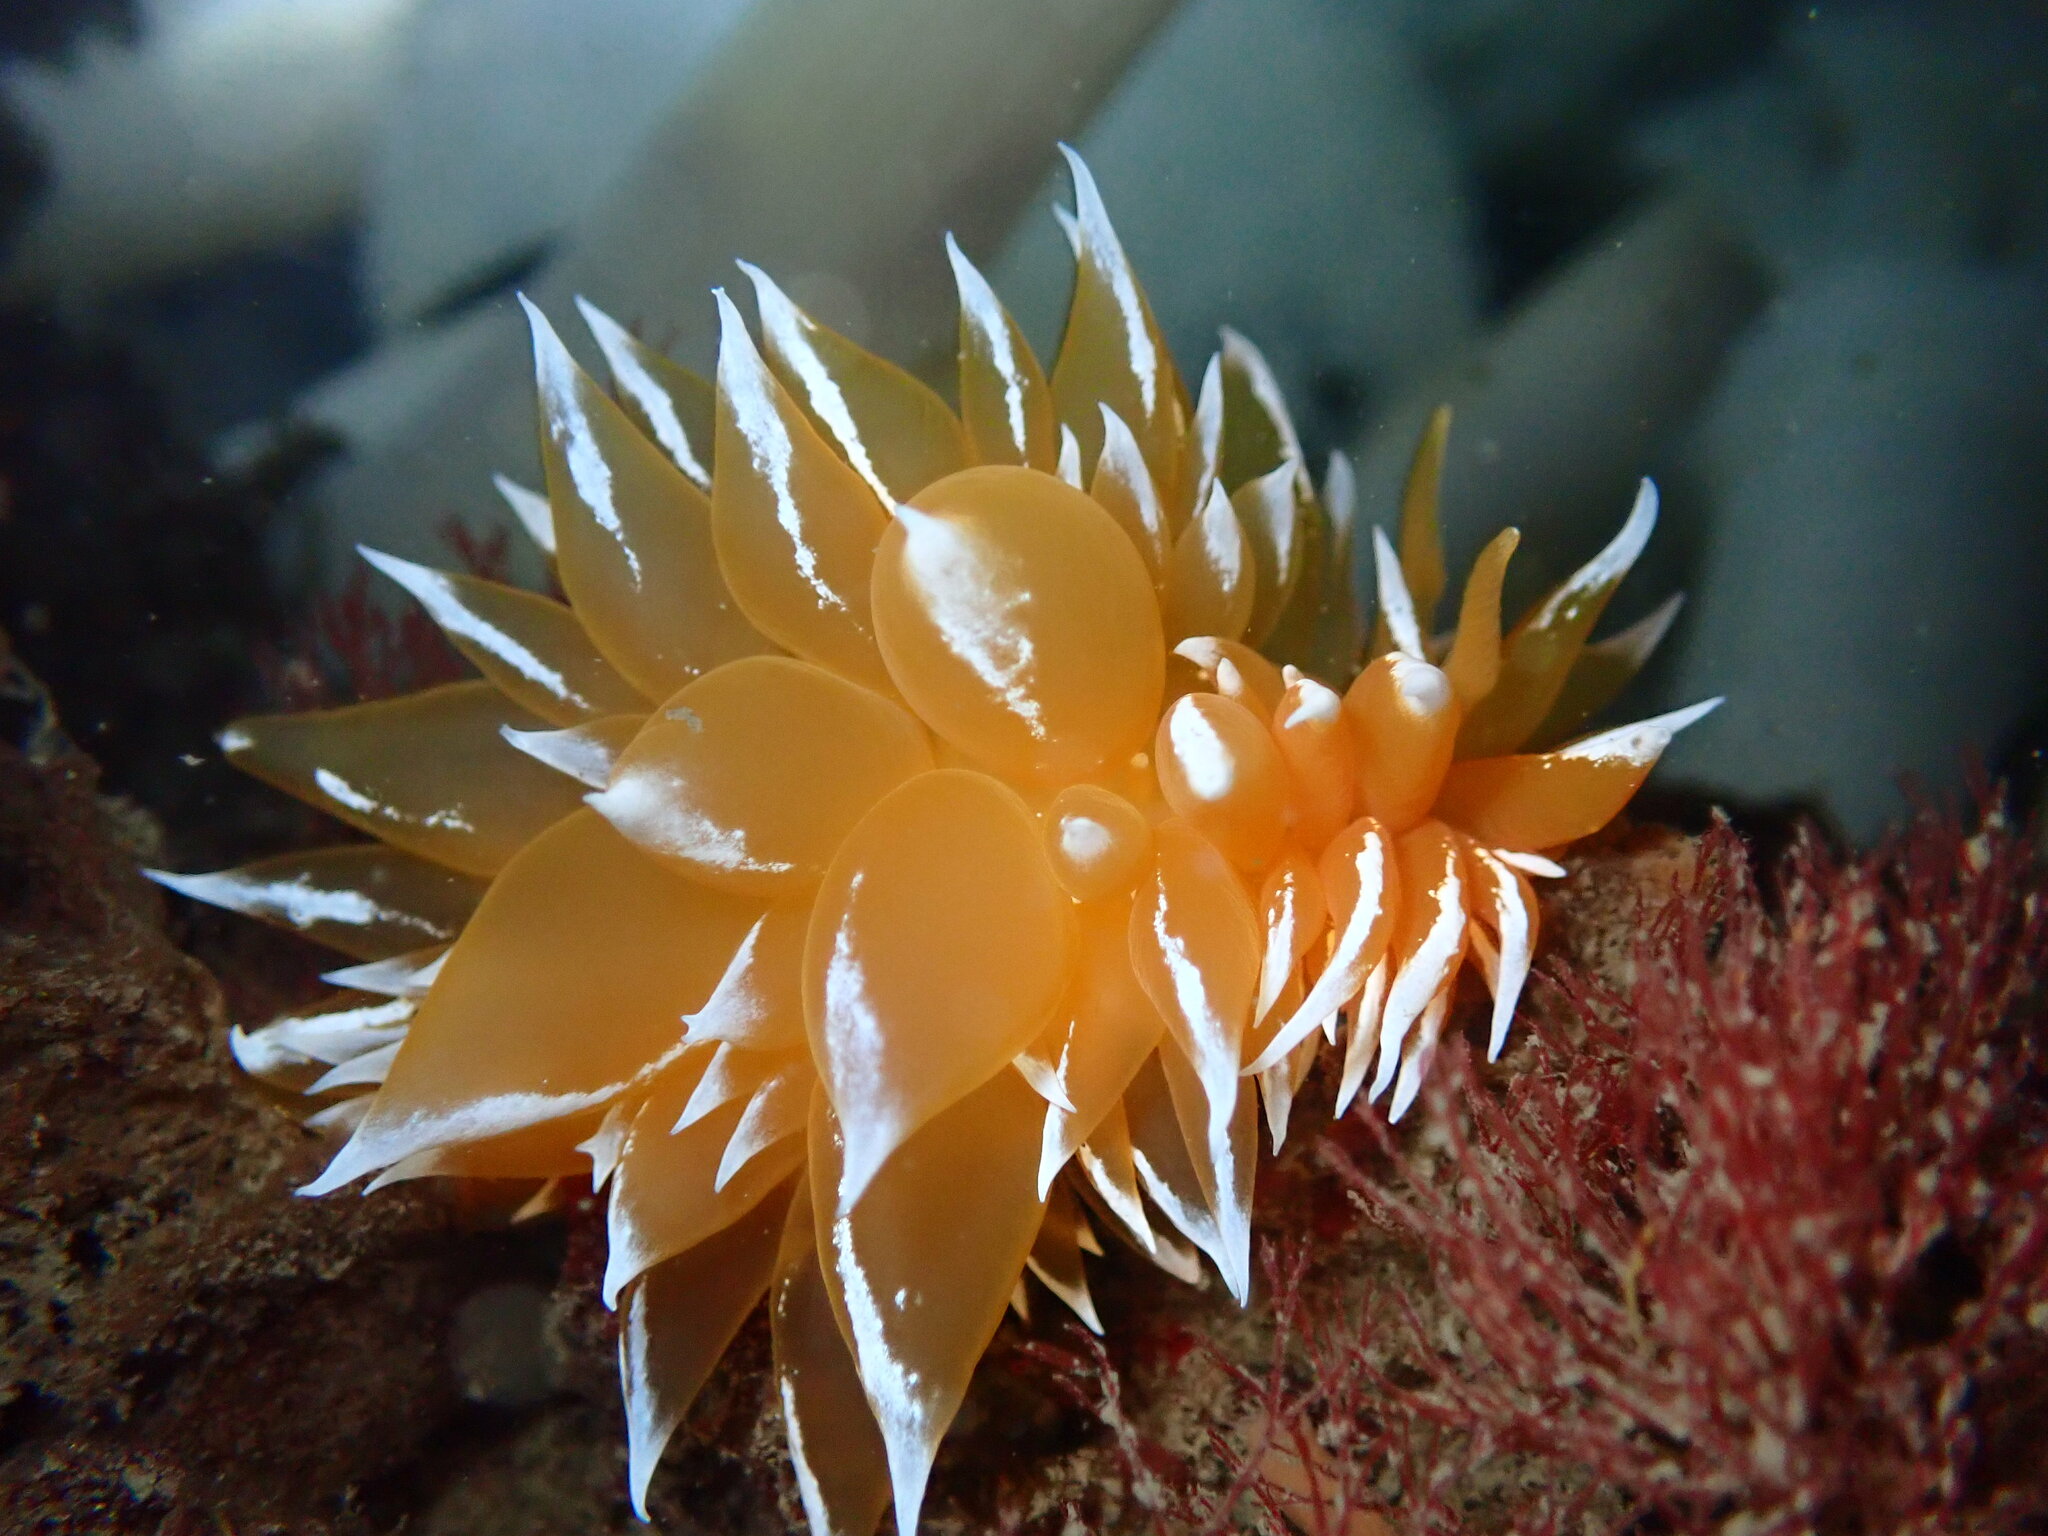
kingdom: Animalia
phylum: Mollusca
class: Gastropoda
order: Nudibranchia
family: Dironidae
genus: Dirona
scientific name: Dirona pellucida
